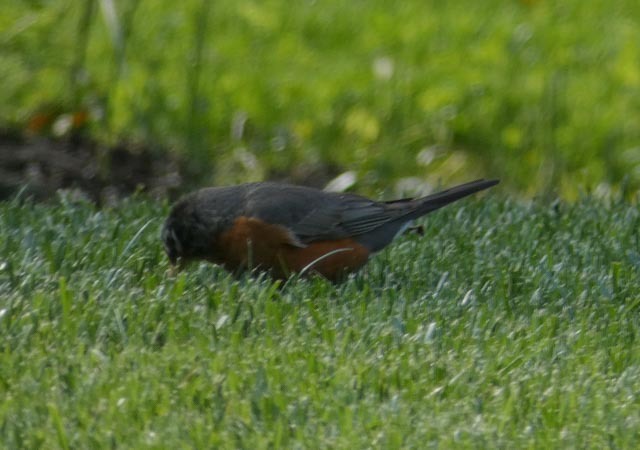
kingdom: Animalia
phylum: Chordata
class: Aves
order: Passeriformes
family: Turdidae
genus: Turdus
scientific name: Turdus migratorius
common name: American robin
